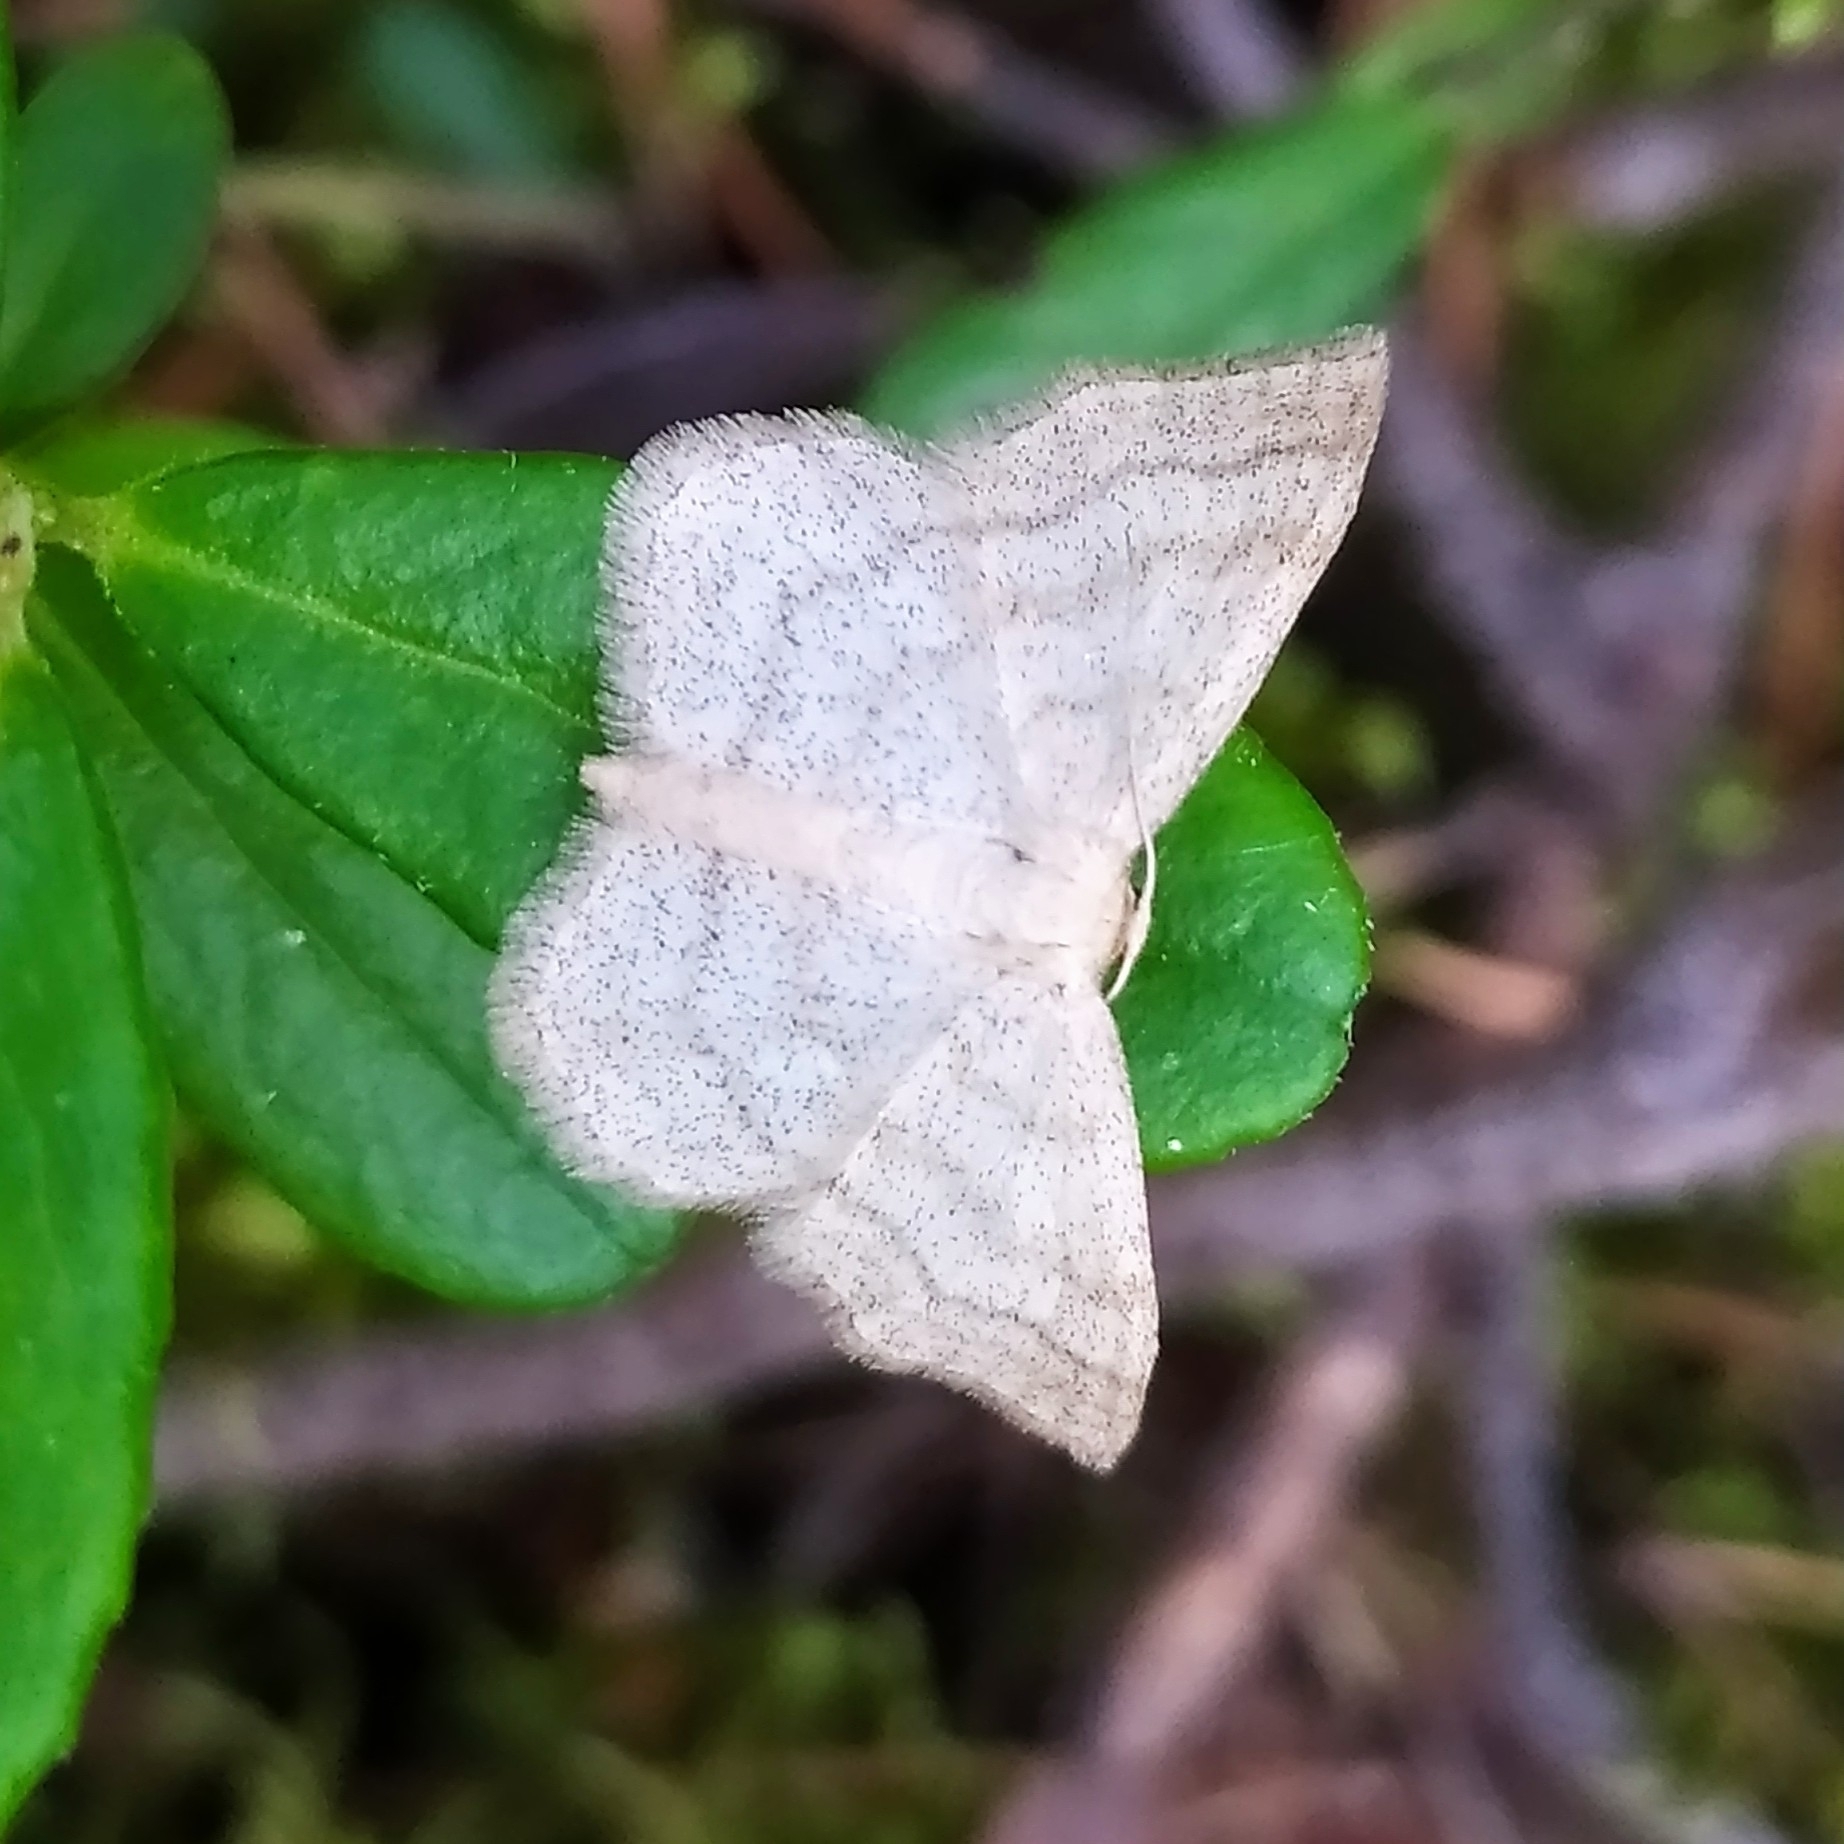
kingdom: Animalia
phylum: Arthropoda
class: Insecta
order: Lepidoptera
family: Geometridae
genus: Scopula
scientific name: Scopula ternata
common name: Smoky wave
